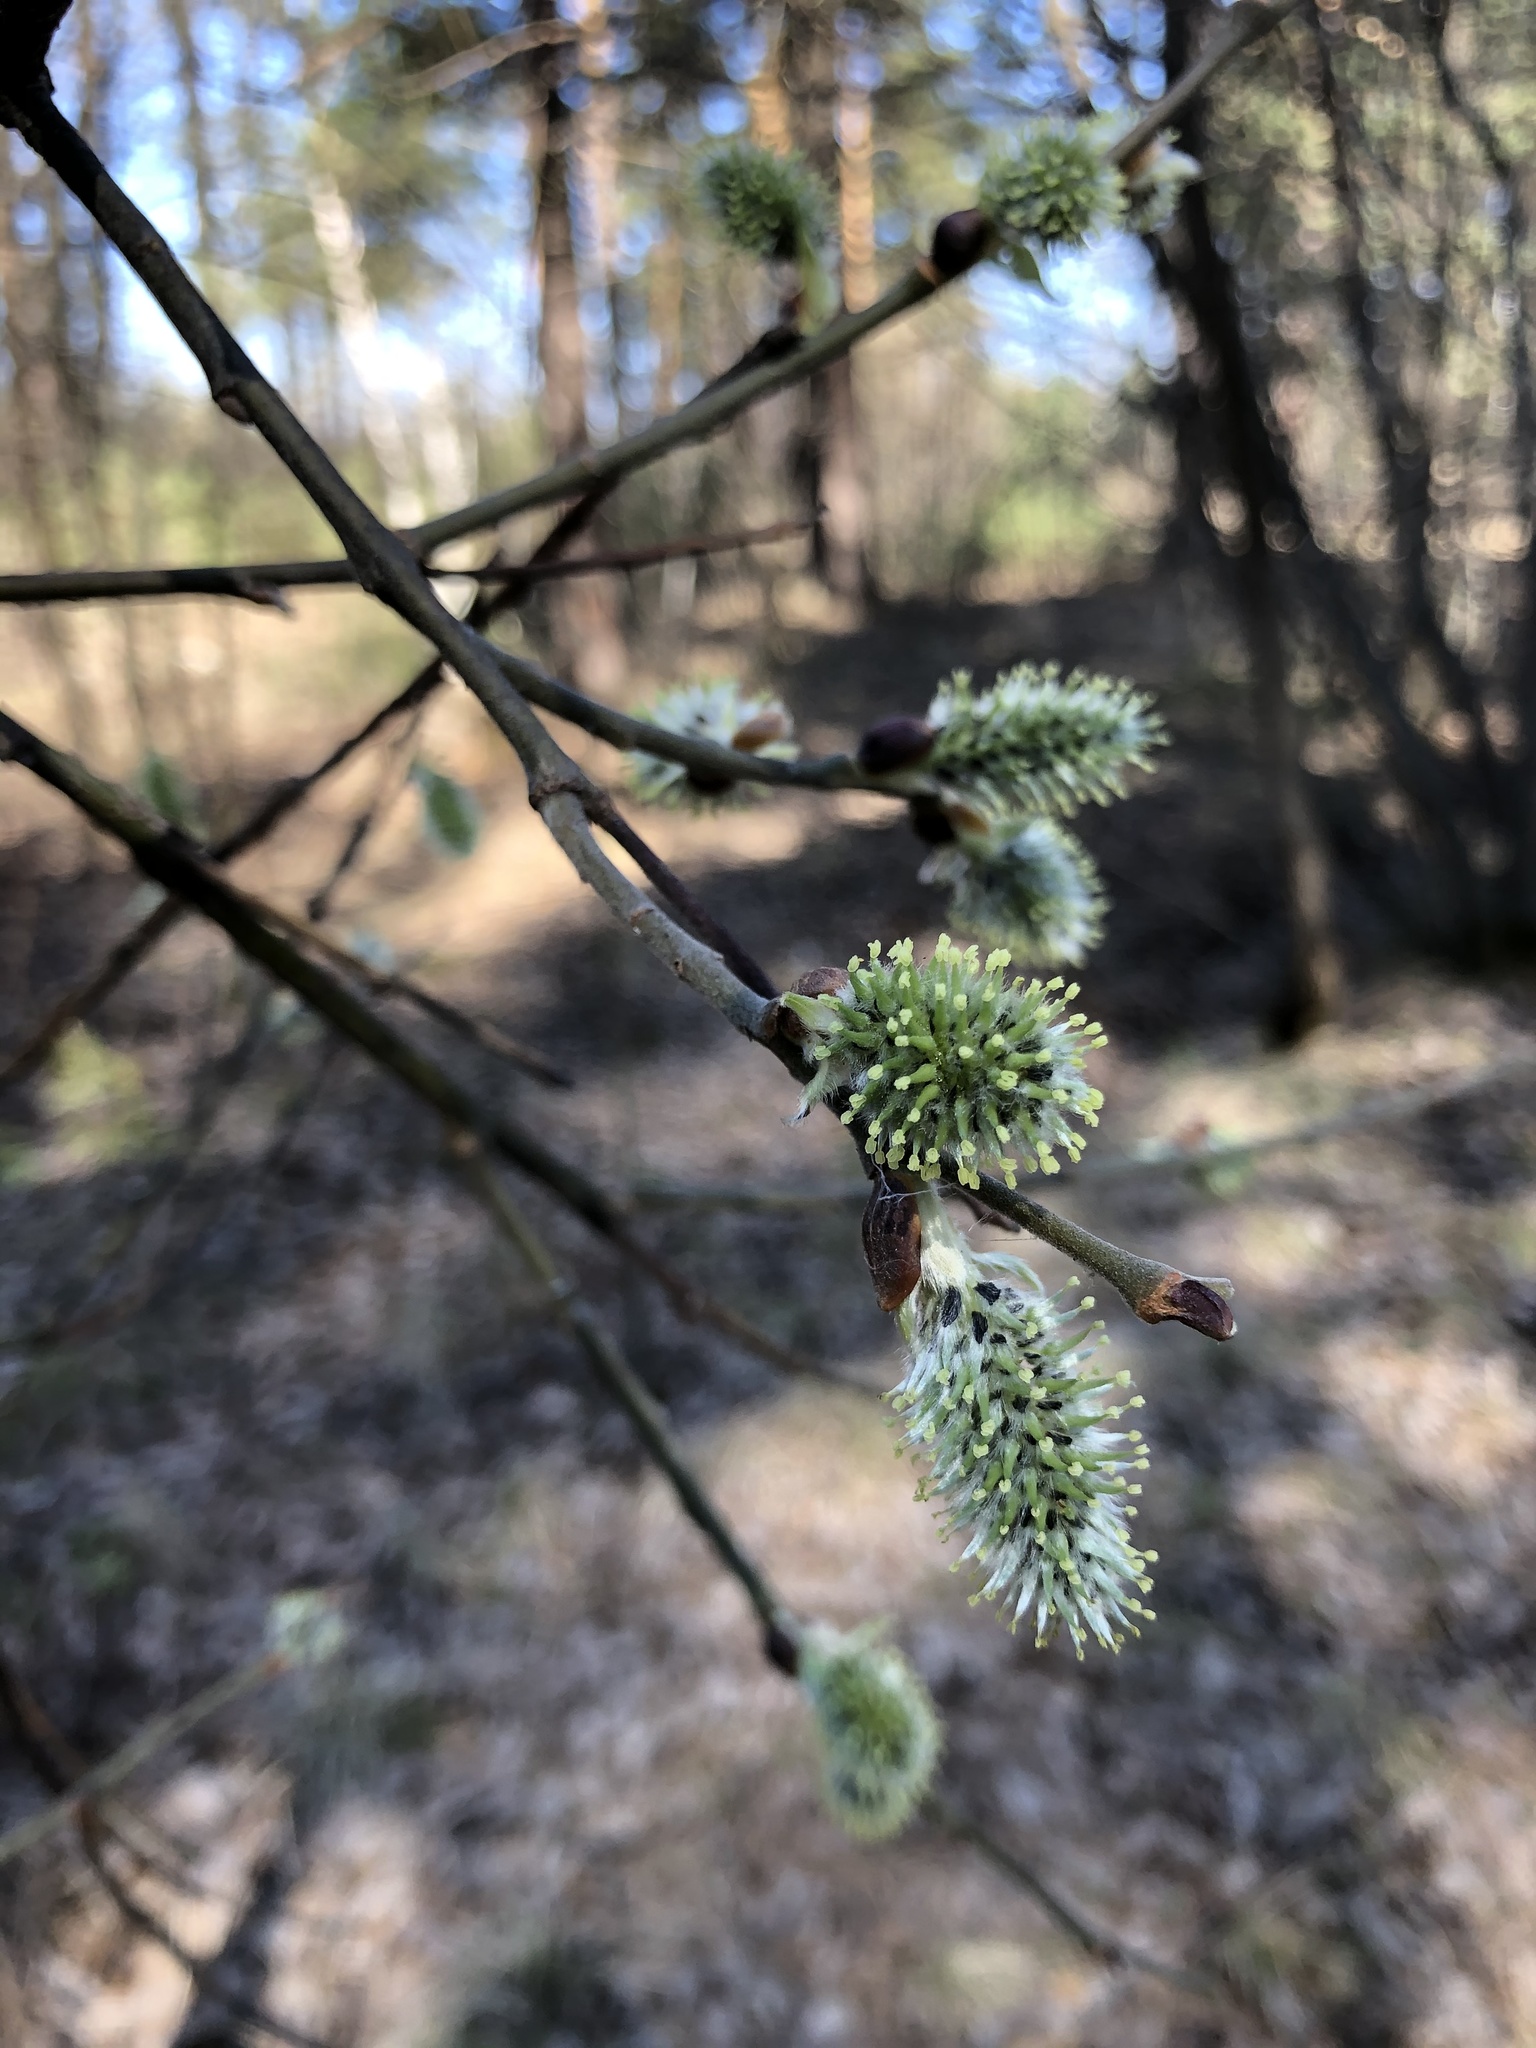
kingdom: Plantae
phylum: Tracheophyta
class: Magnoliopsida
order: Malpighiales
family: Salicaceae
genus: Salix
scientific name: Salix caprea
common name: Goat willow
